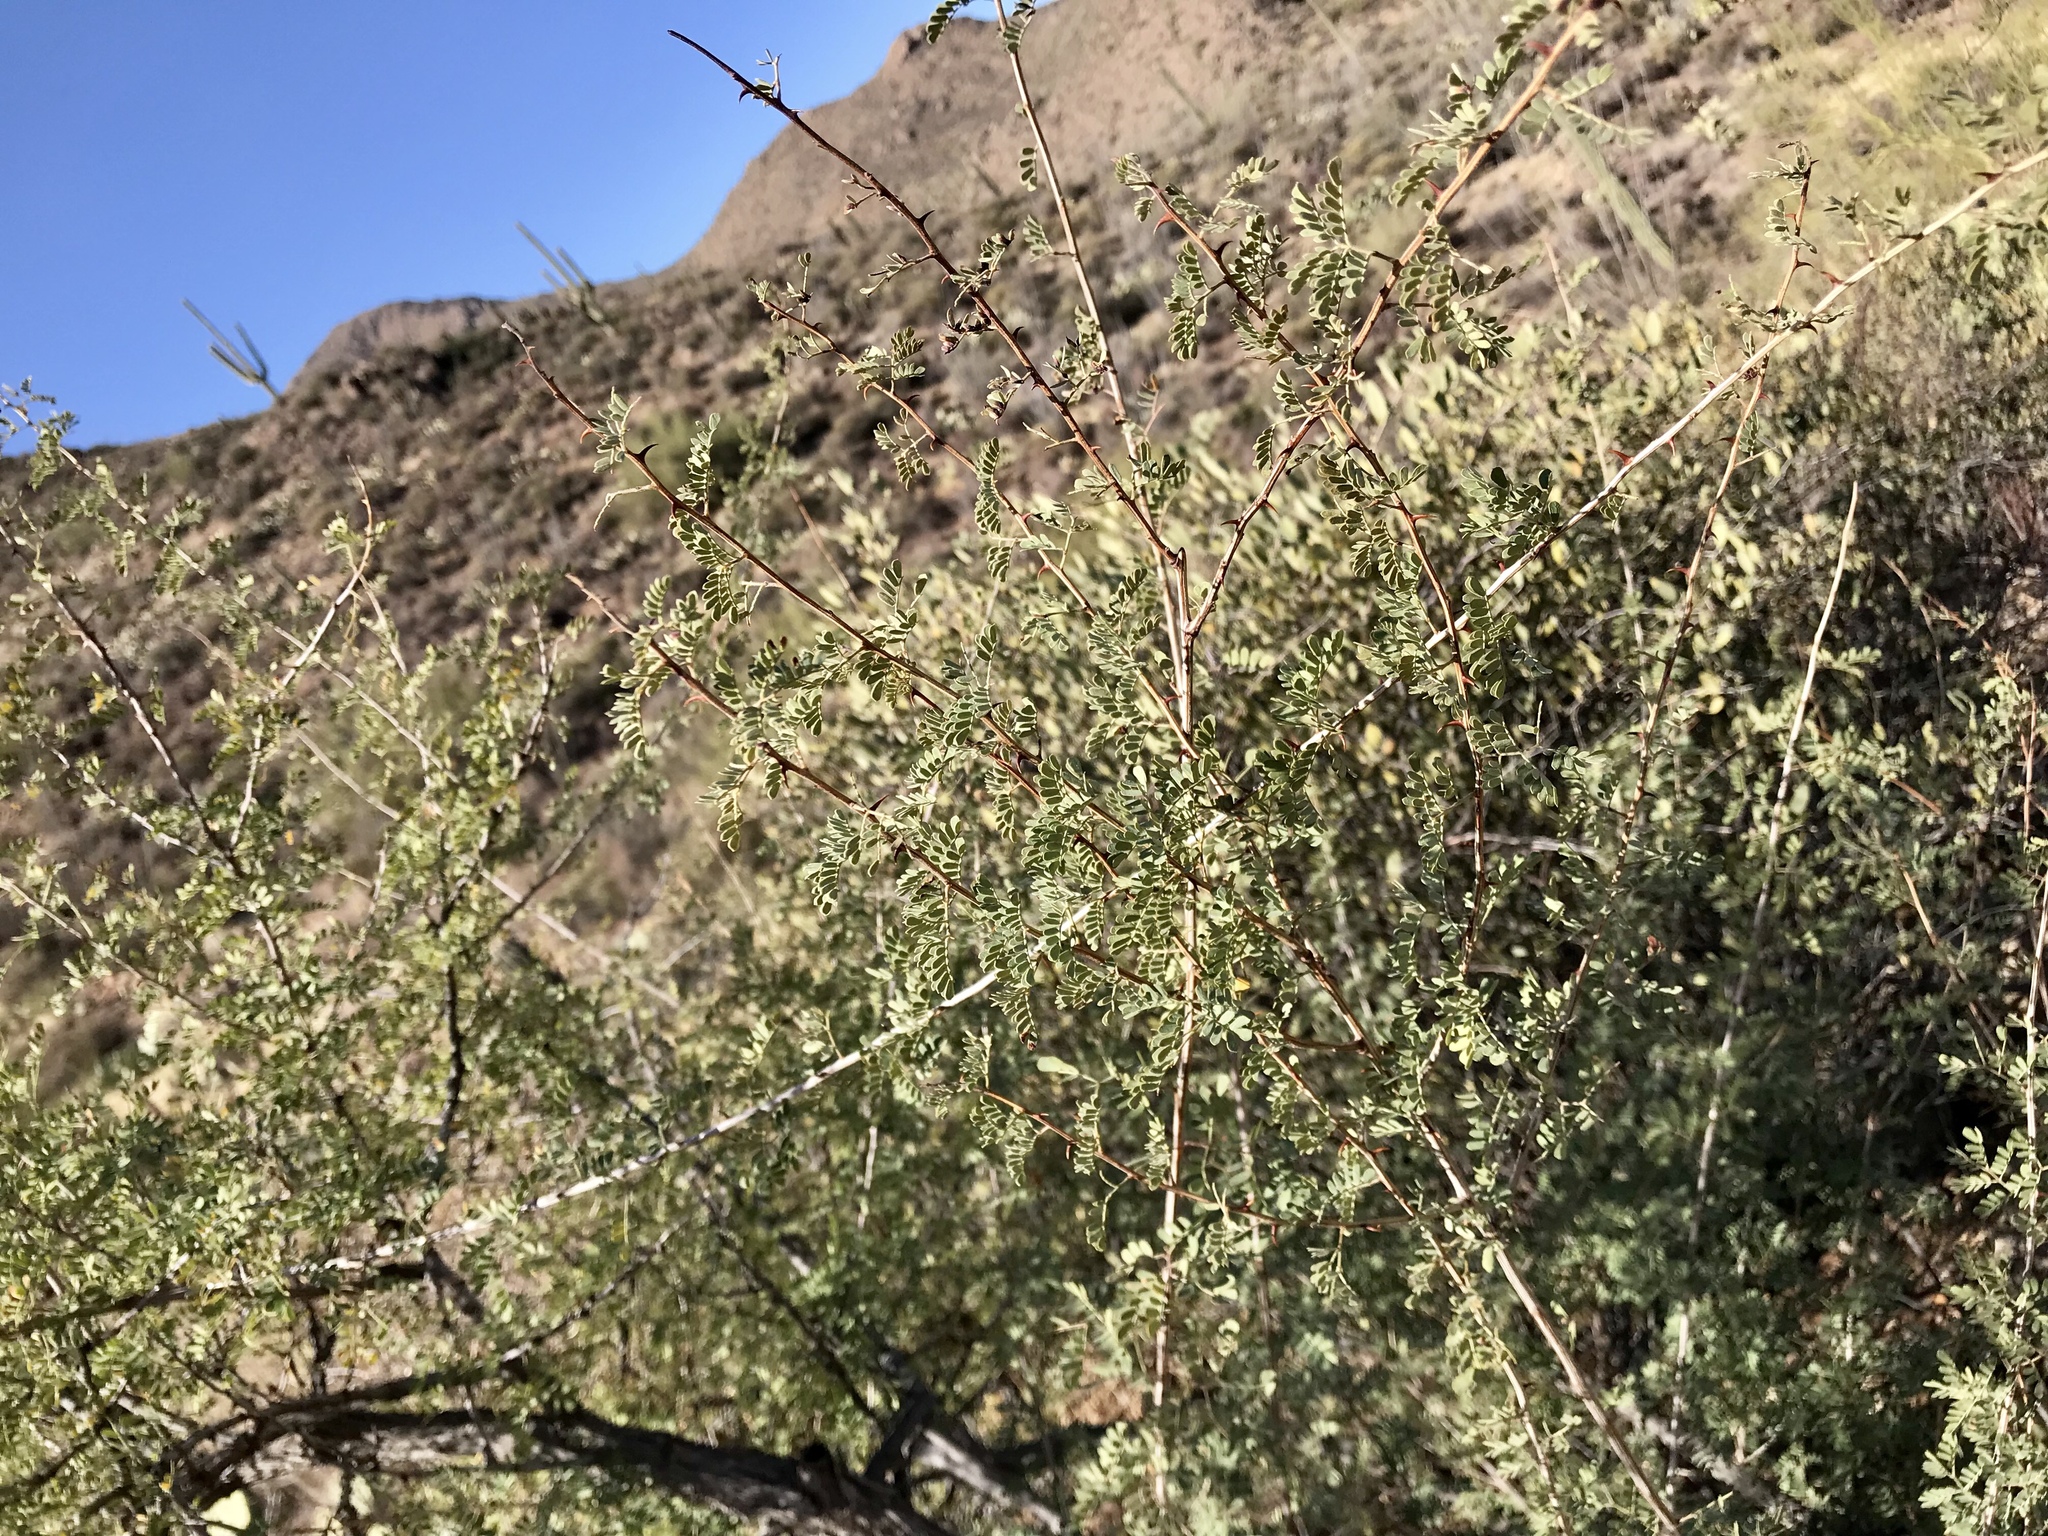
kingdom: Plantae
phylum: Tracheophyta
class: Magnoliopsida
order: Fabales
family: Fabaceae
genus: Senegalia
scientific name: Senegalia greggii
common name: Texas-mimosa
